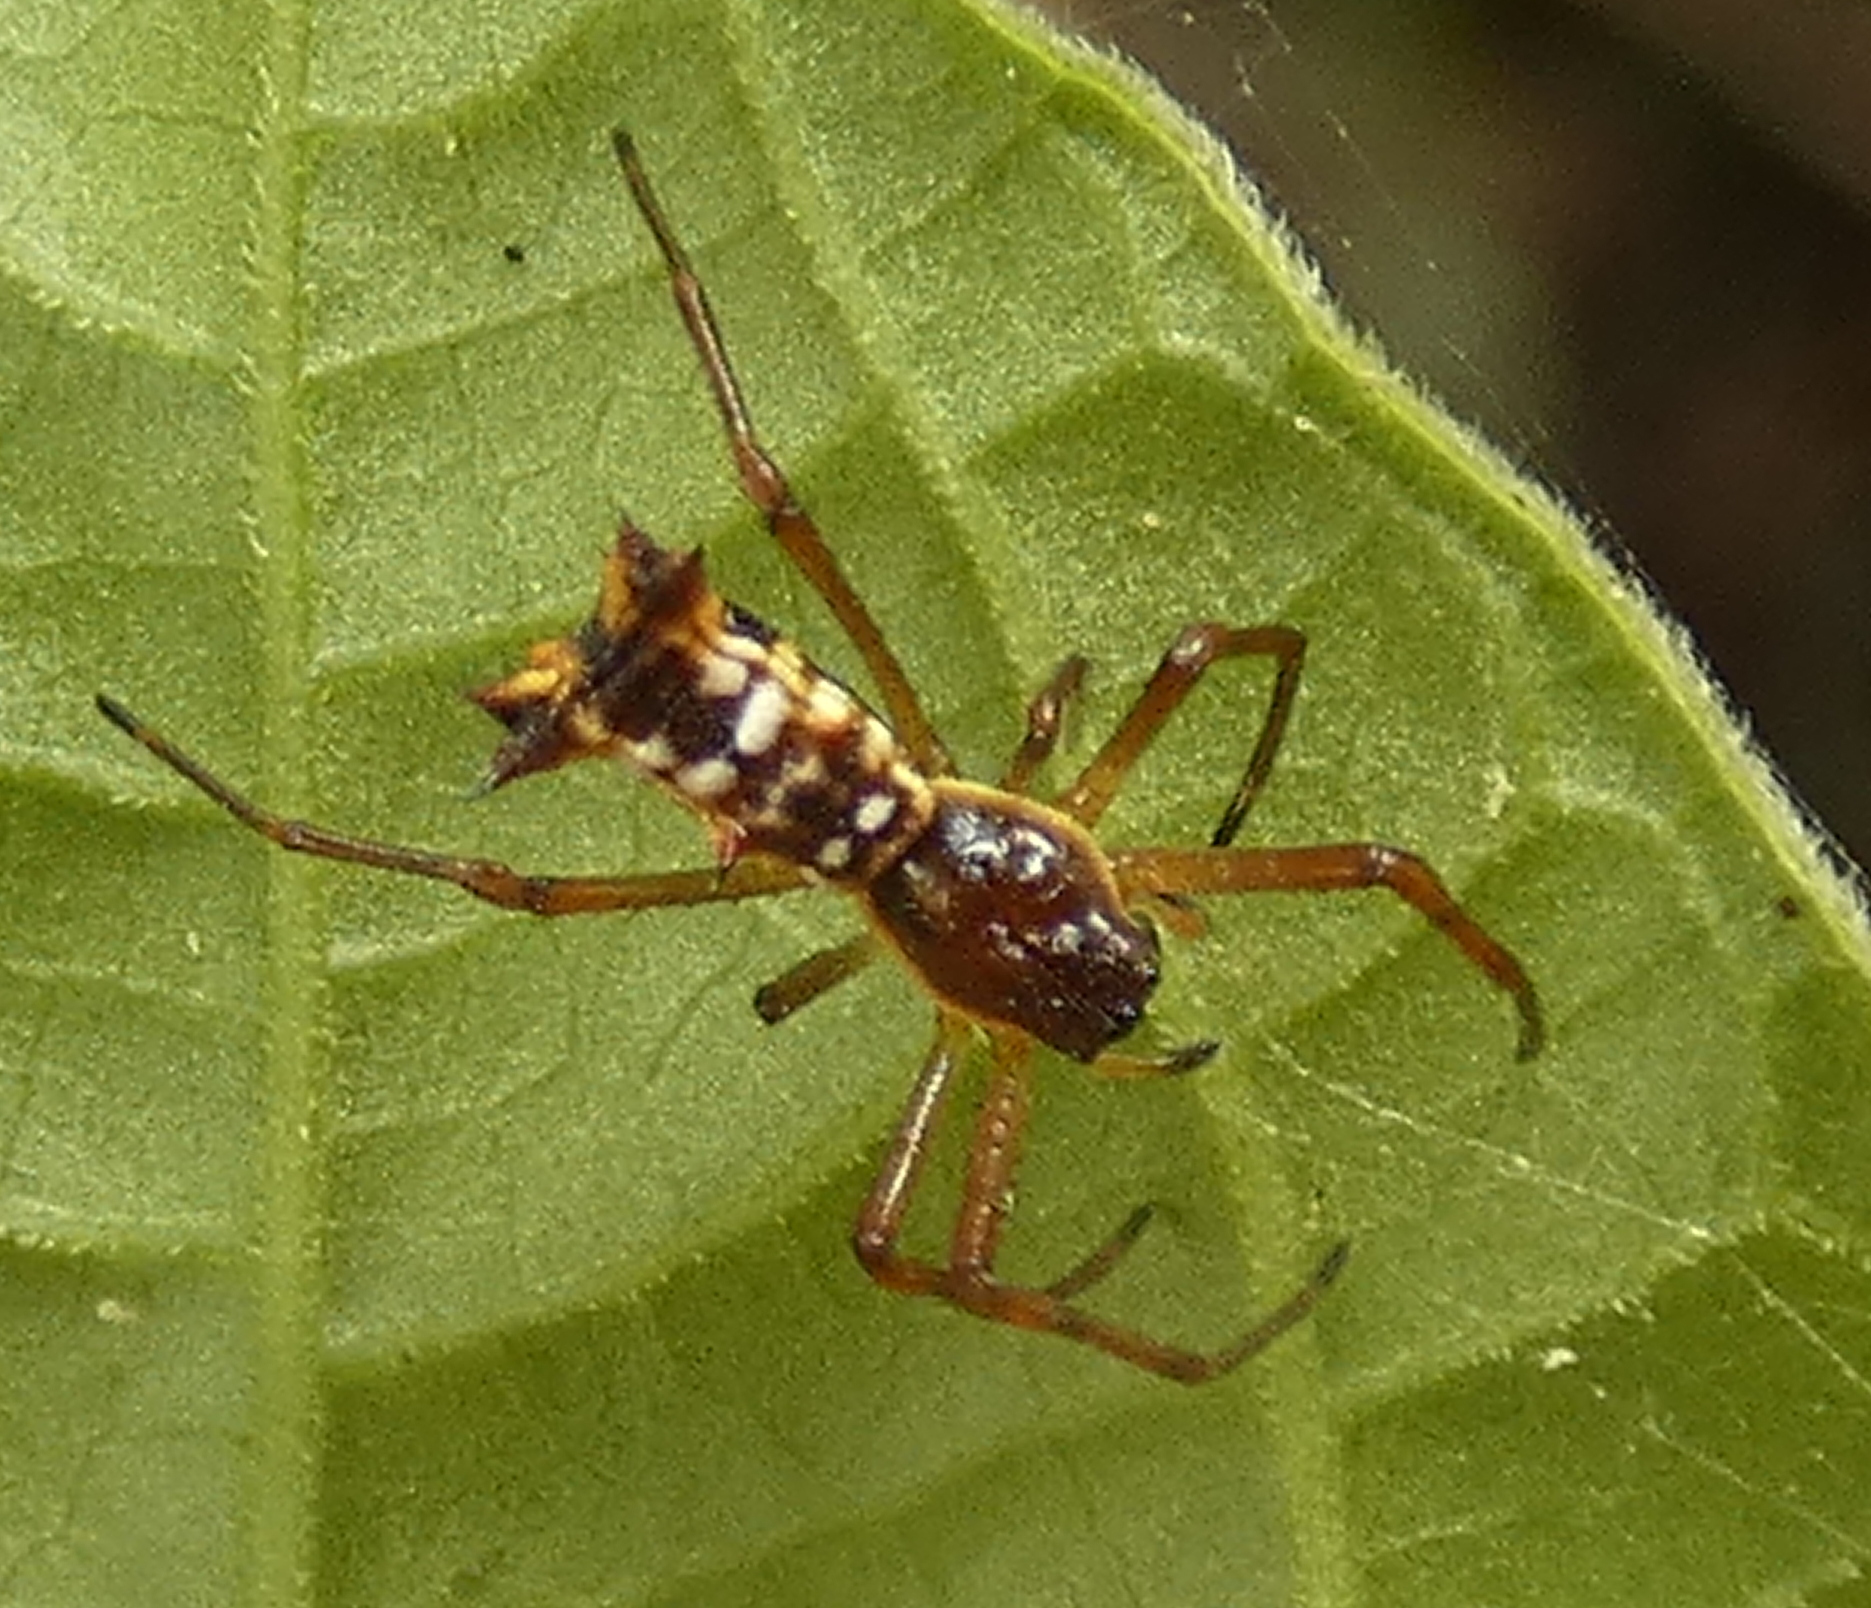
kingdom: Animalia
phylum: Arthropoda
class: Arachnida
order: Araneae
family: Araneidae
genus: Micrathena
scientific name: Micrathena fissispina
